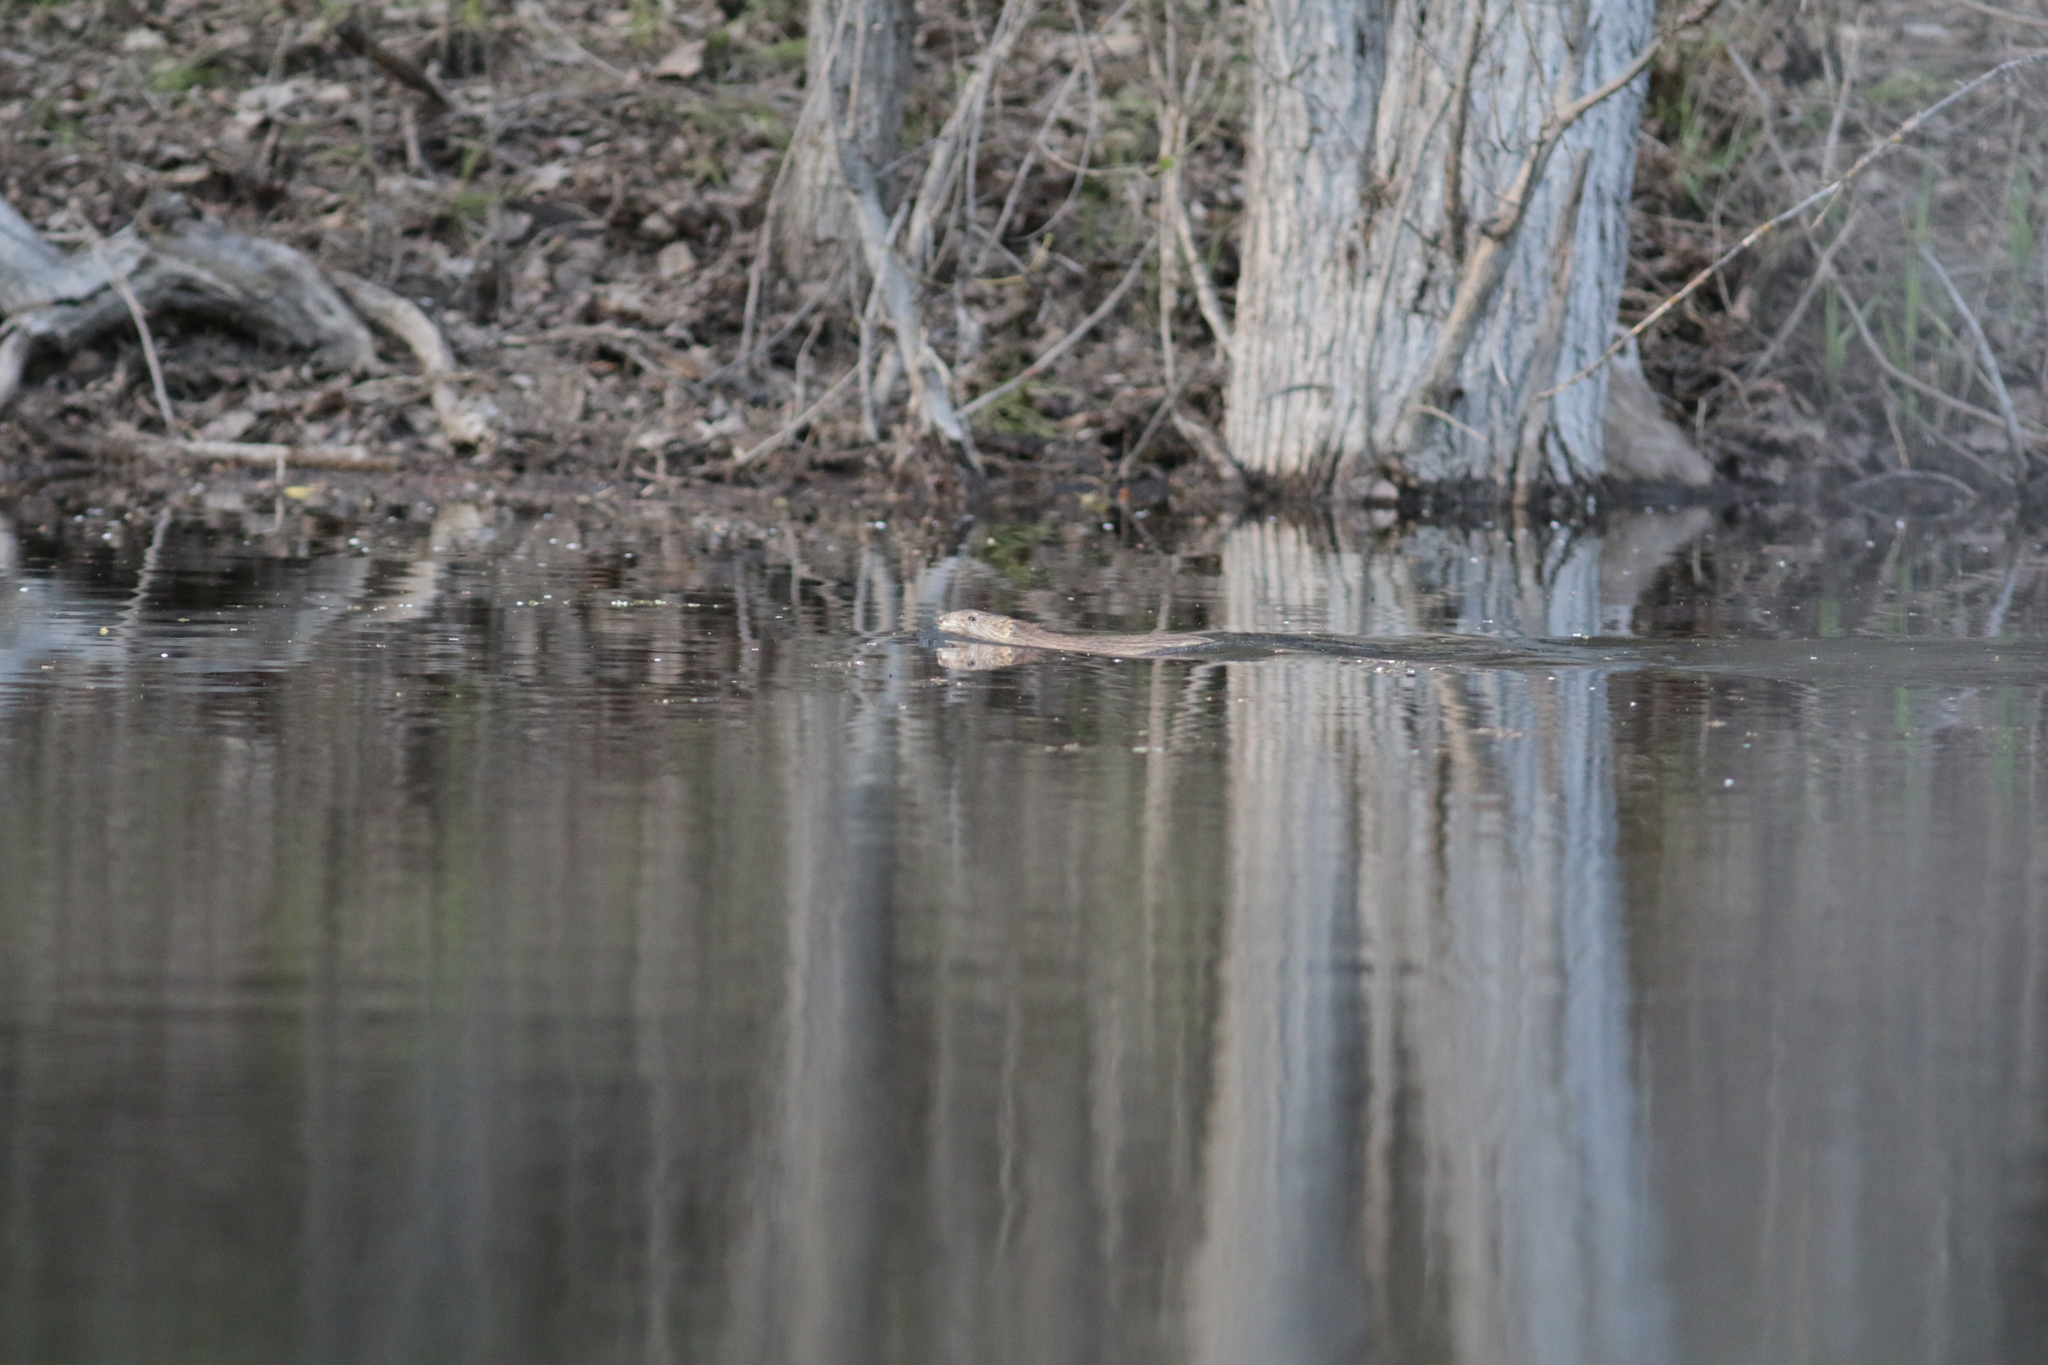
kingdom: Animalia
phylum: Chordata
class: Mammalia
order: Rodentia
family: Cricetidae
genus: Ondatra
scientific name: Ondatra zibethicus
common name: Muskrat
